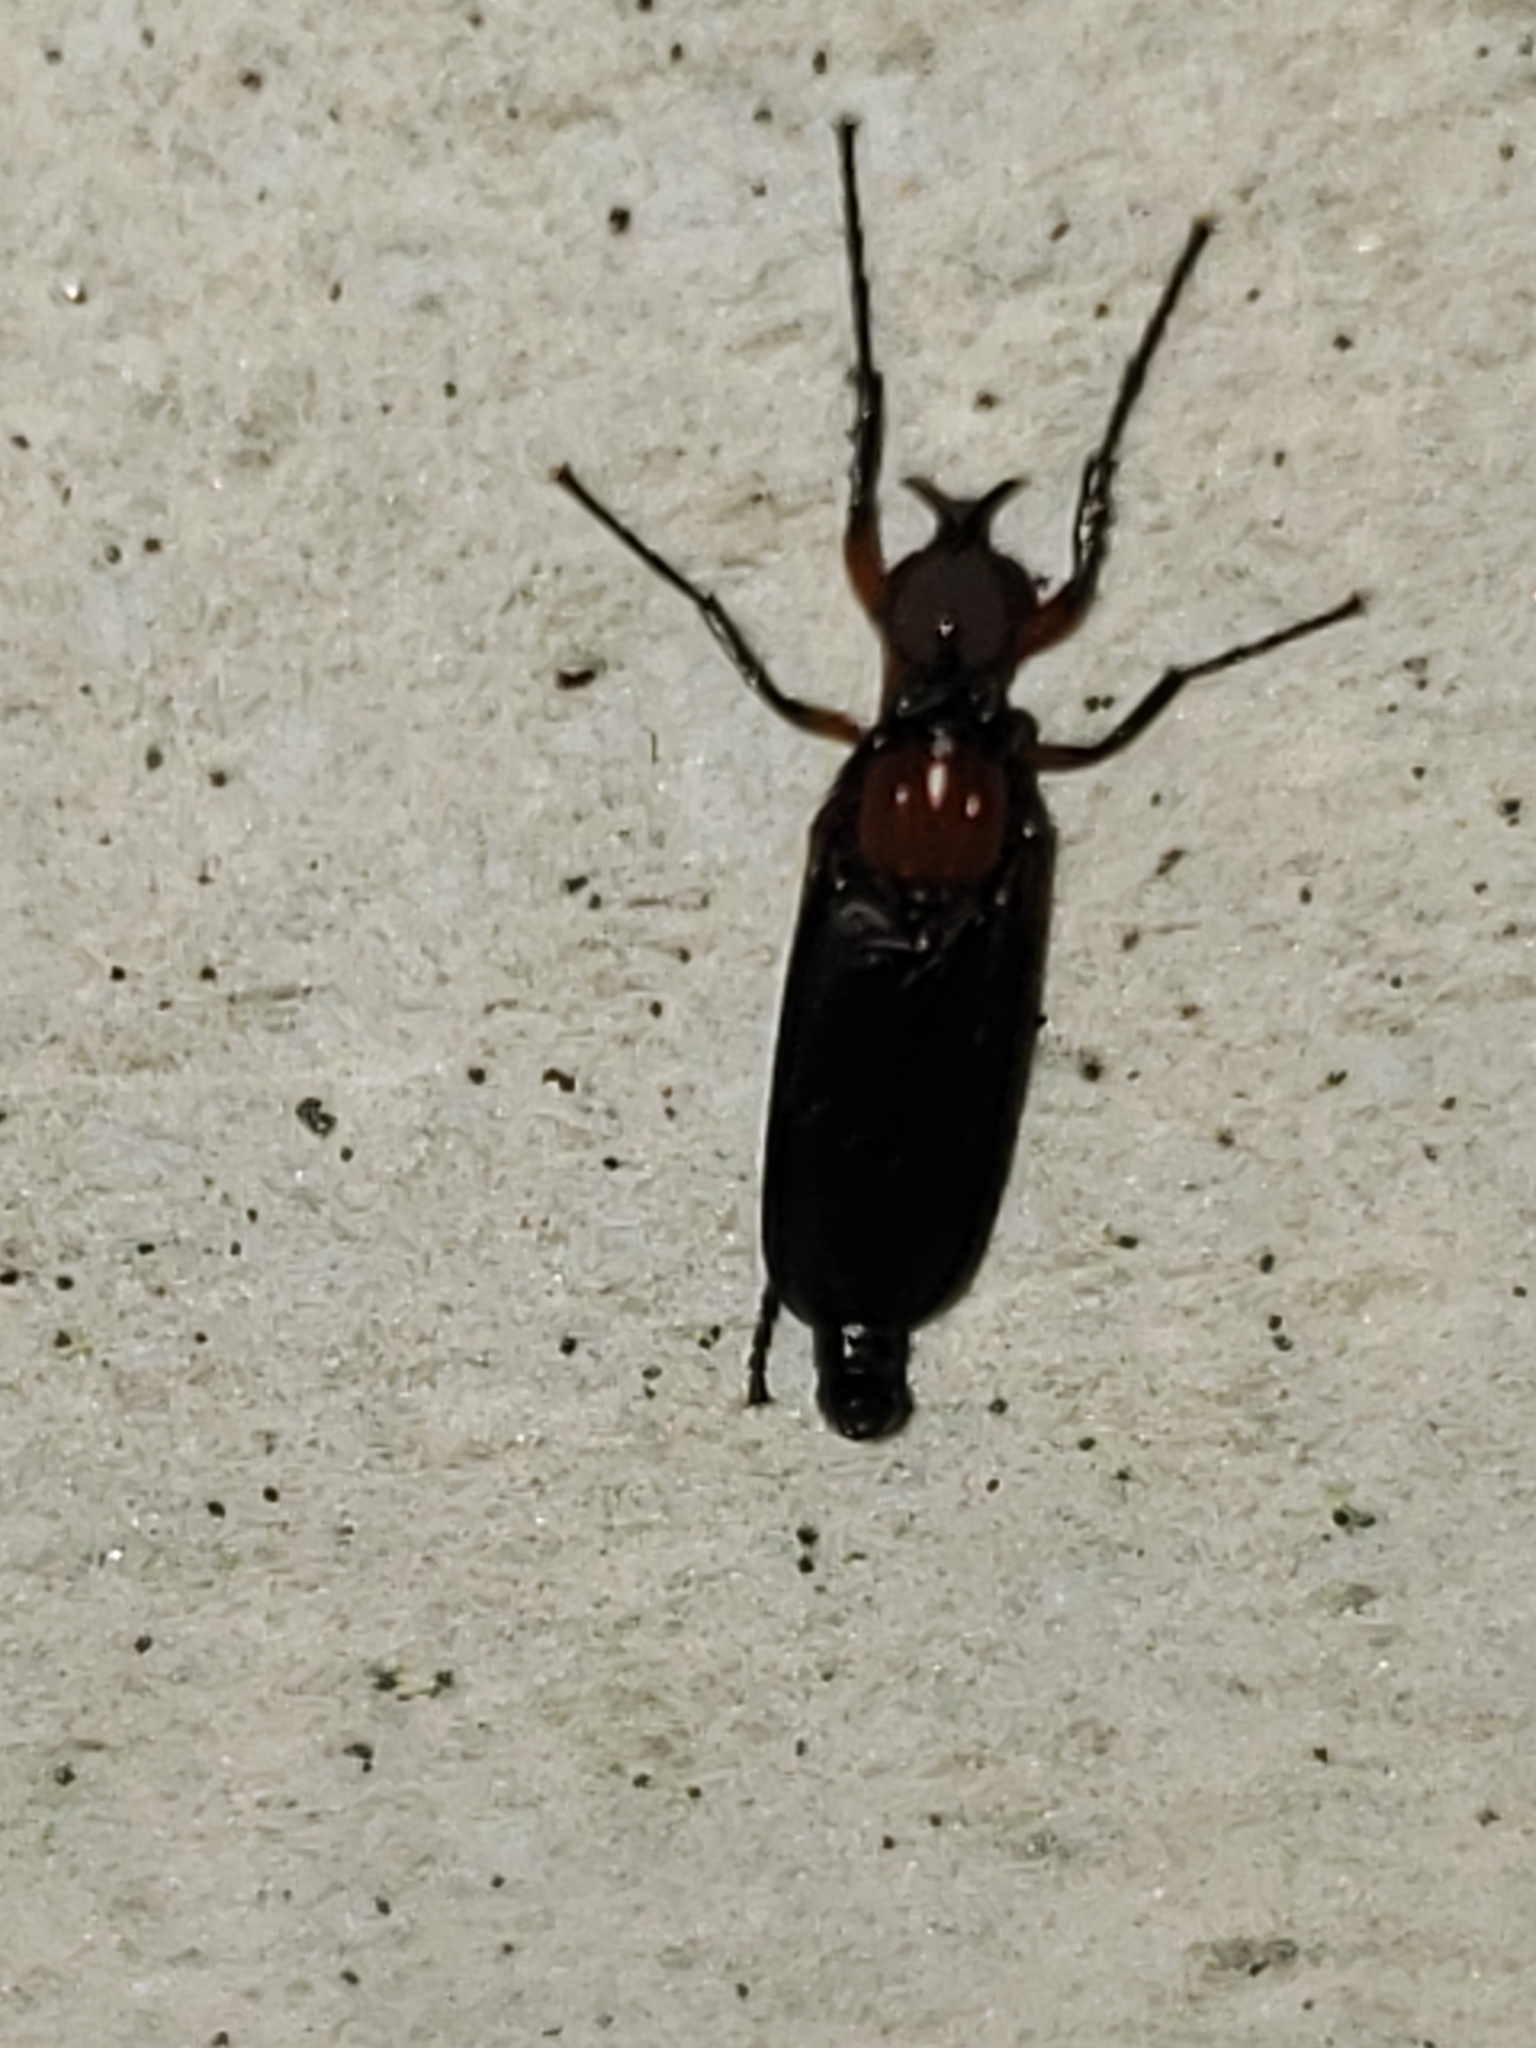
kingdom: Animalia
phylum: Arthropoda
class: Insecta
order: Diptera
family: Bibionidae
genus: Dilophus
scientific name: Dilophus spinipes
